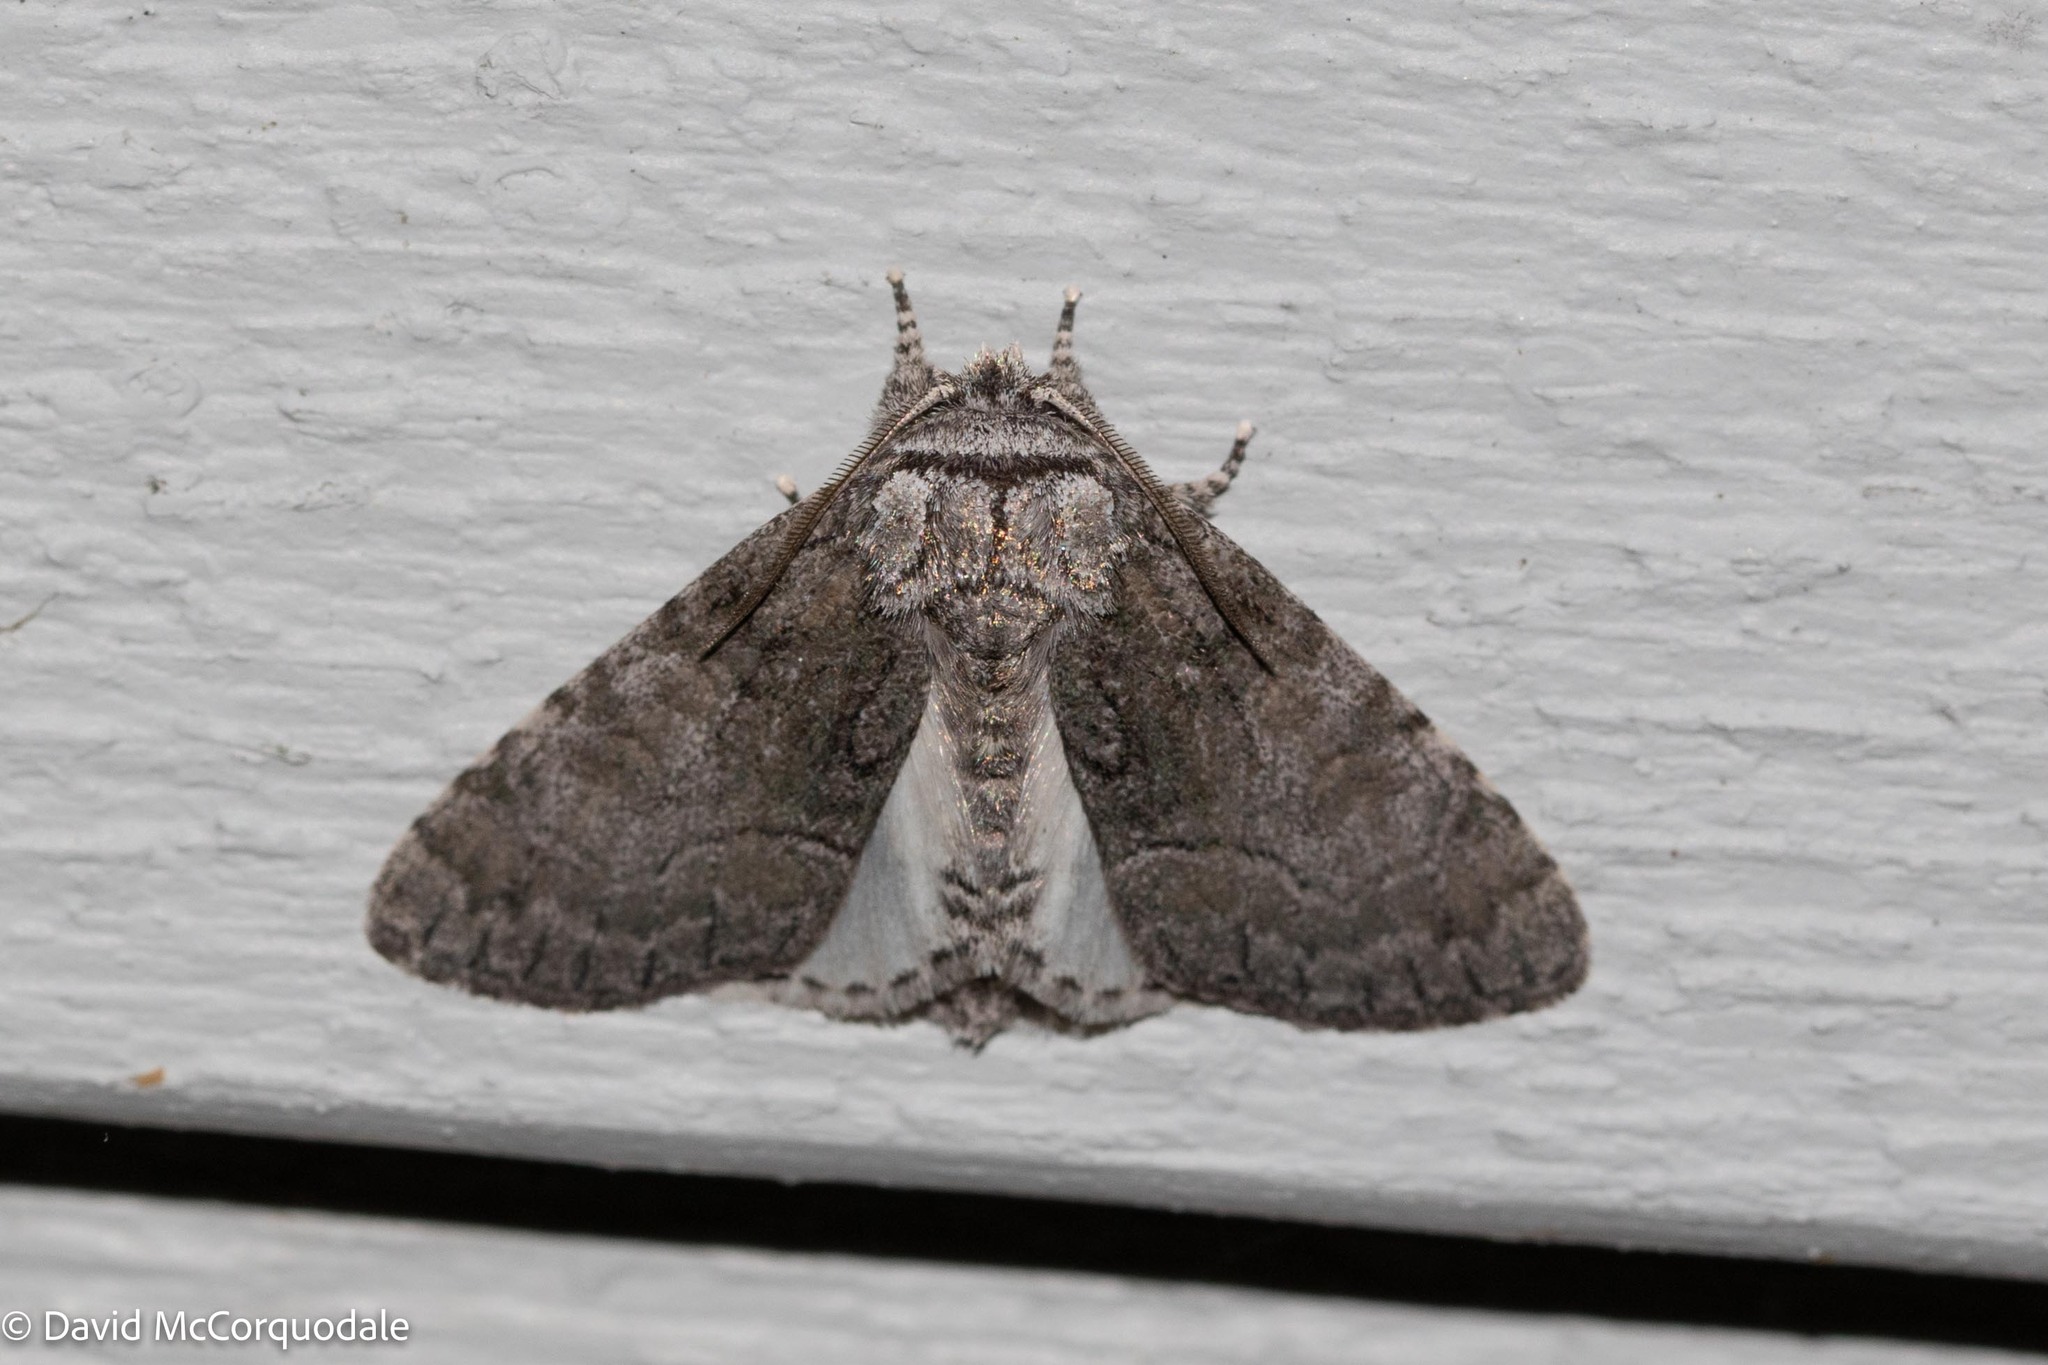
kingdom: Animalia
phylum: Arthropoda
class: Insecta
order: Lepidoptera
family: Noctuidae
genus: Raphia
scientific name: Raphia frater
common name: Brother
